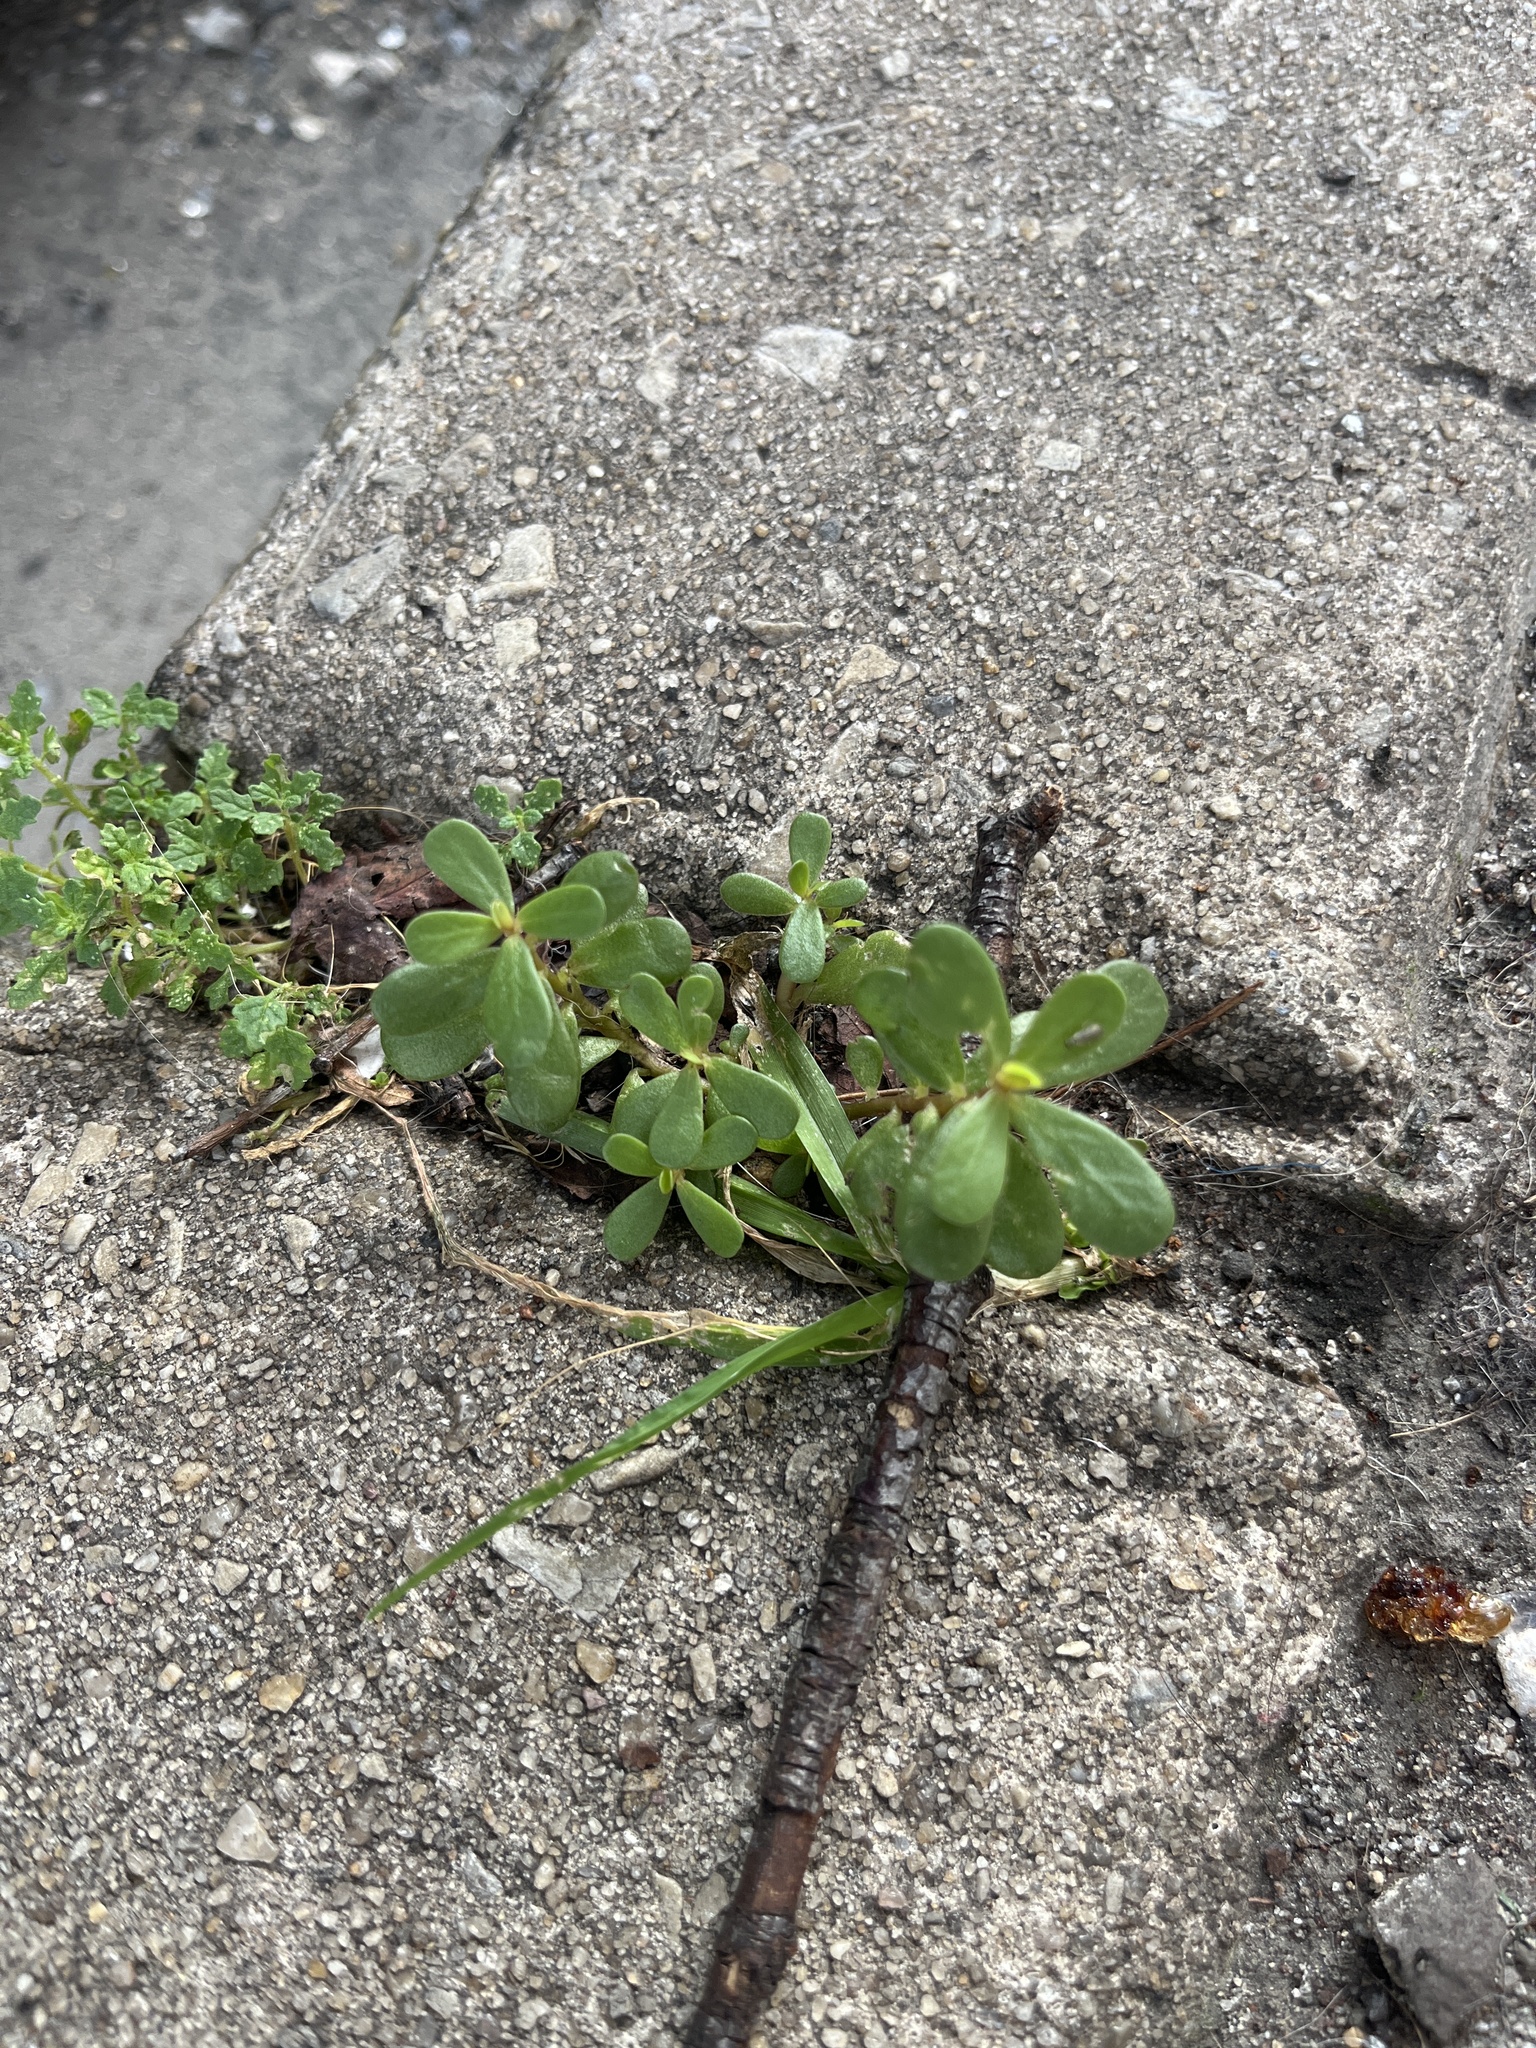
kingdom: Plantae
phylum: Tracheophyta
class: Magnoliopsida
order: Caryophyllales
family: Portulacaceae
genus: Portulaca
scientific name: Portulaca oleracea
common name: Common purslane
